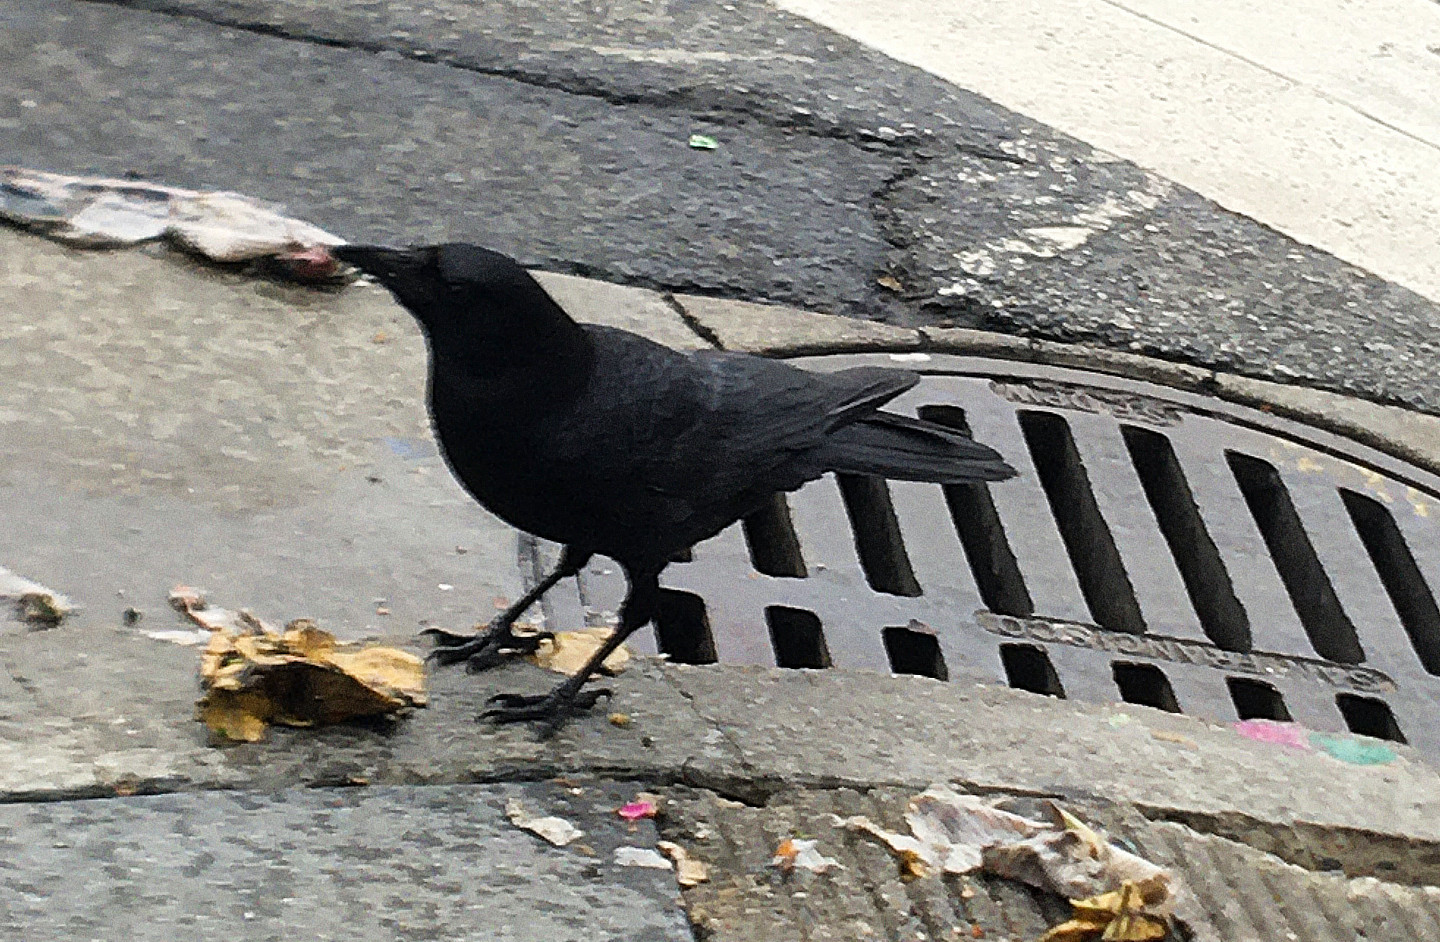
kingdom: Animalia
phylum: Chordata
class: Aves
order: Passeriformes
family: Corvidae
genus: Corvus
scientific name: Corvus brachyrhynchos
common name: American crow
